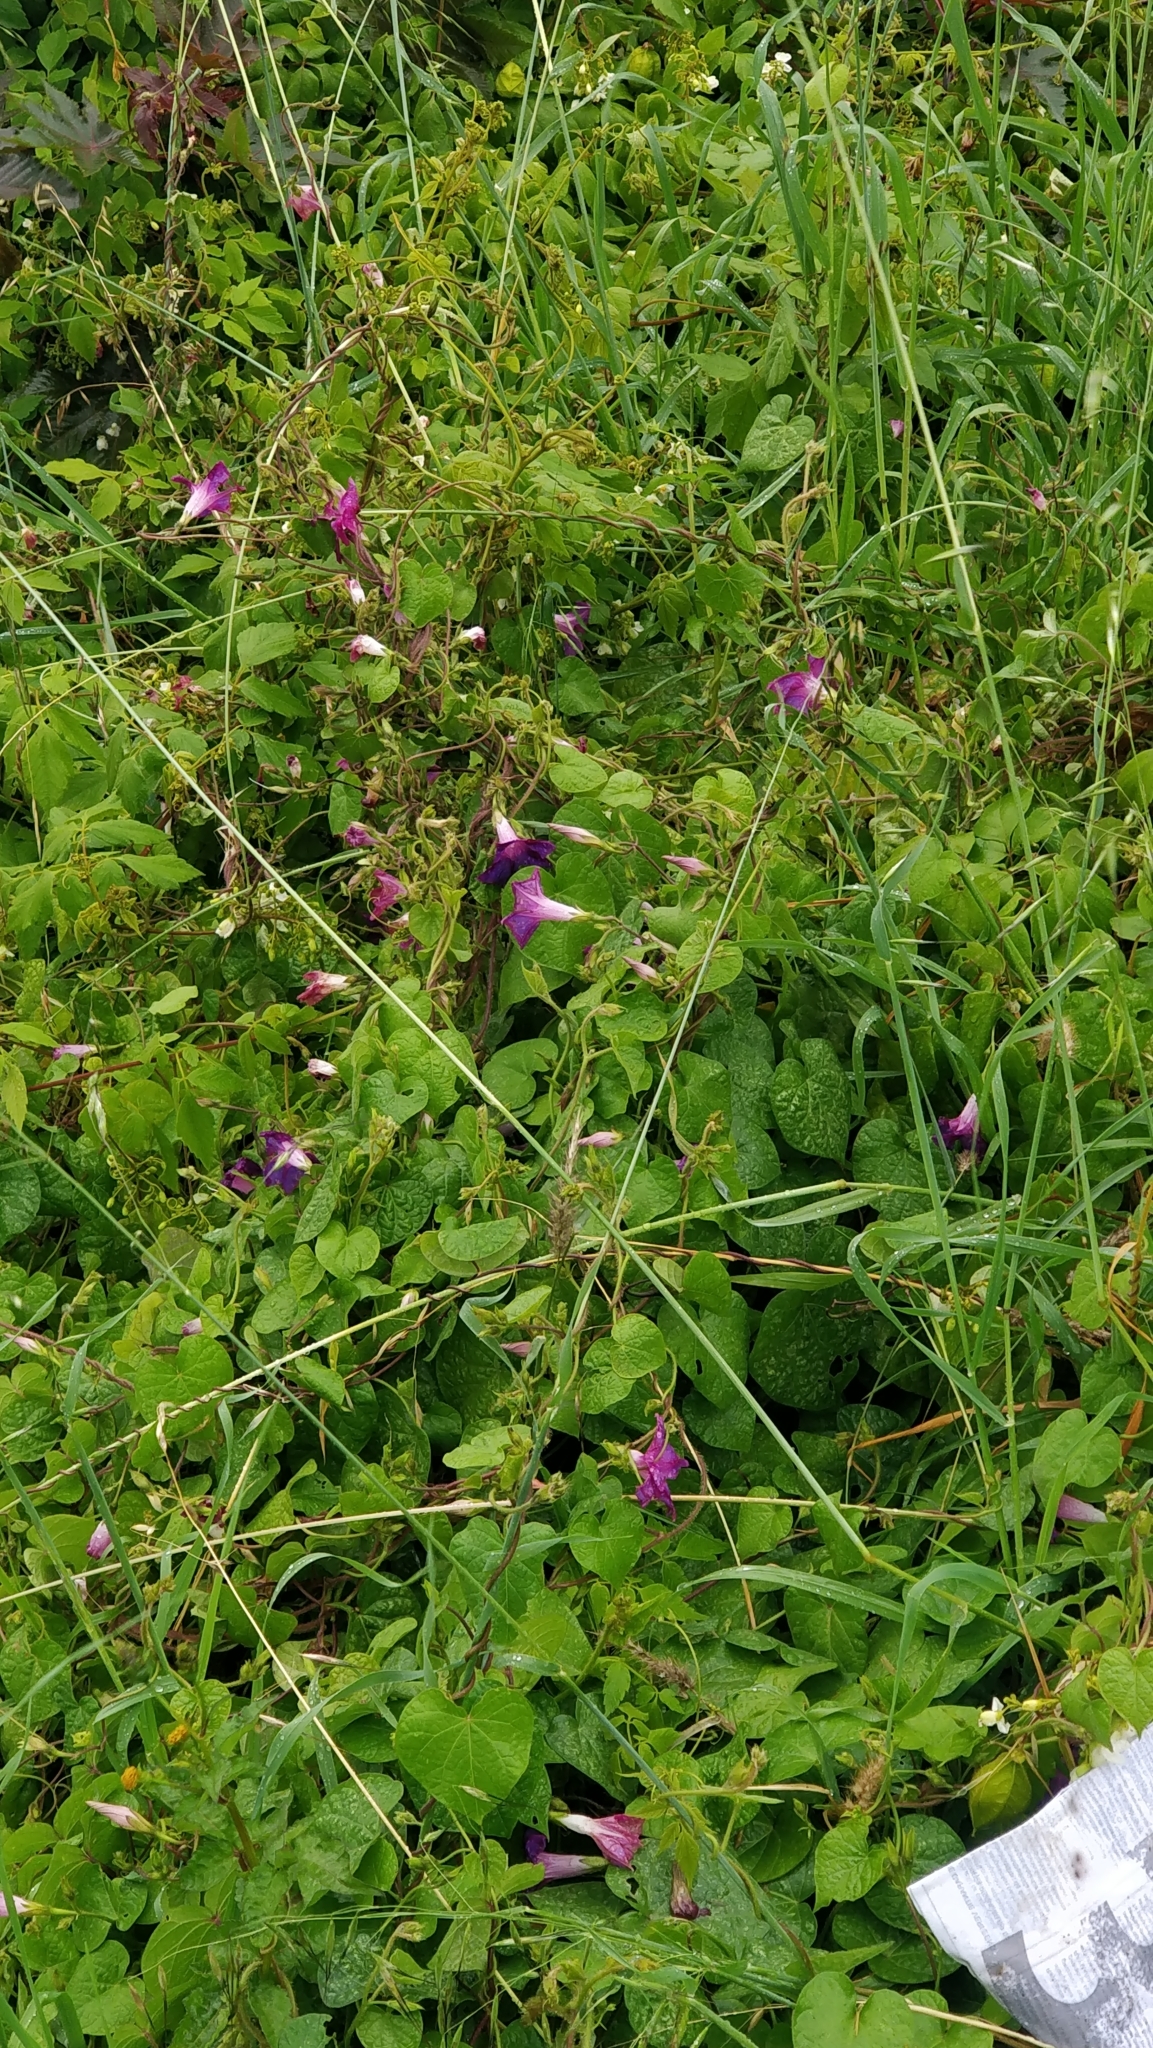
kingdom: Plantae
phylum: Tracheophyta
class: Magnoliopsida
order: Solanales
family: Convolvulaceae
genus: Ipomoea
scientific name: Ipomoea purpurea
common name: Common morning-glory
